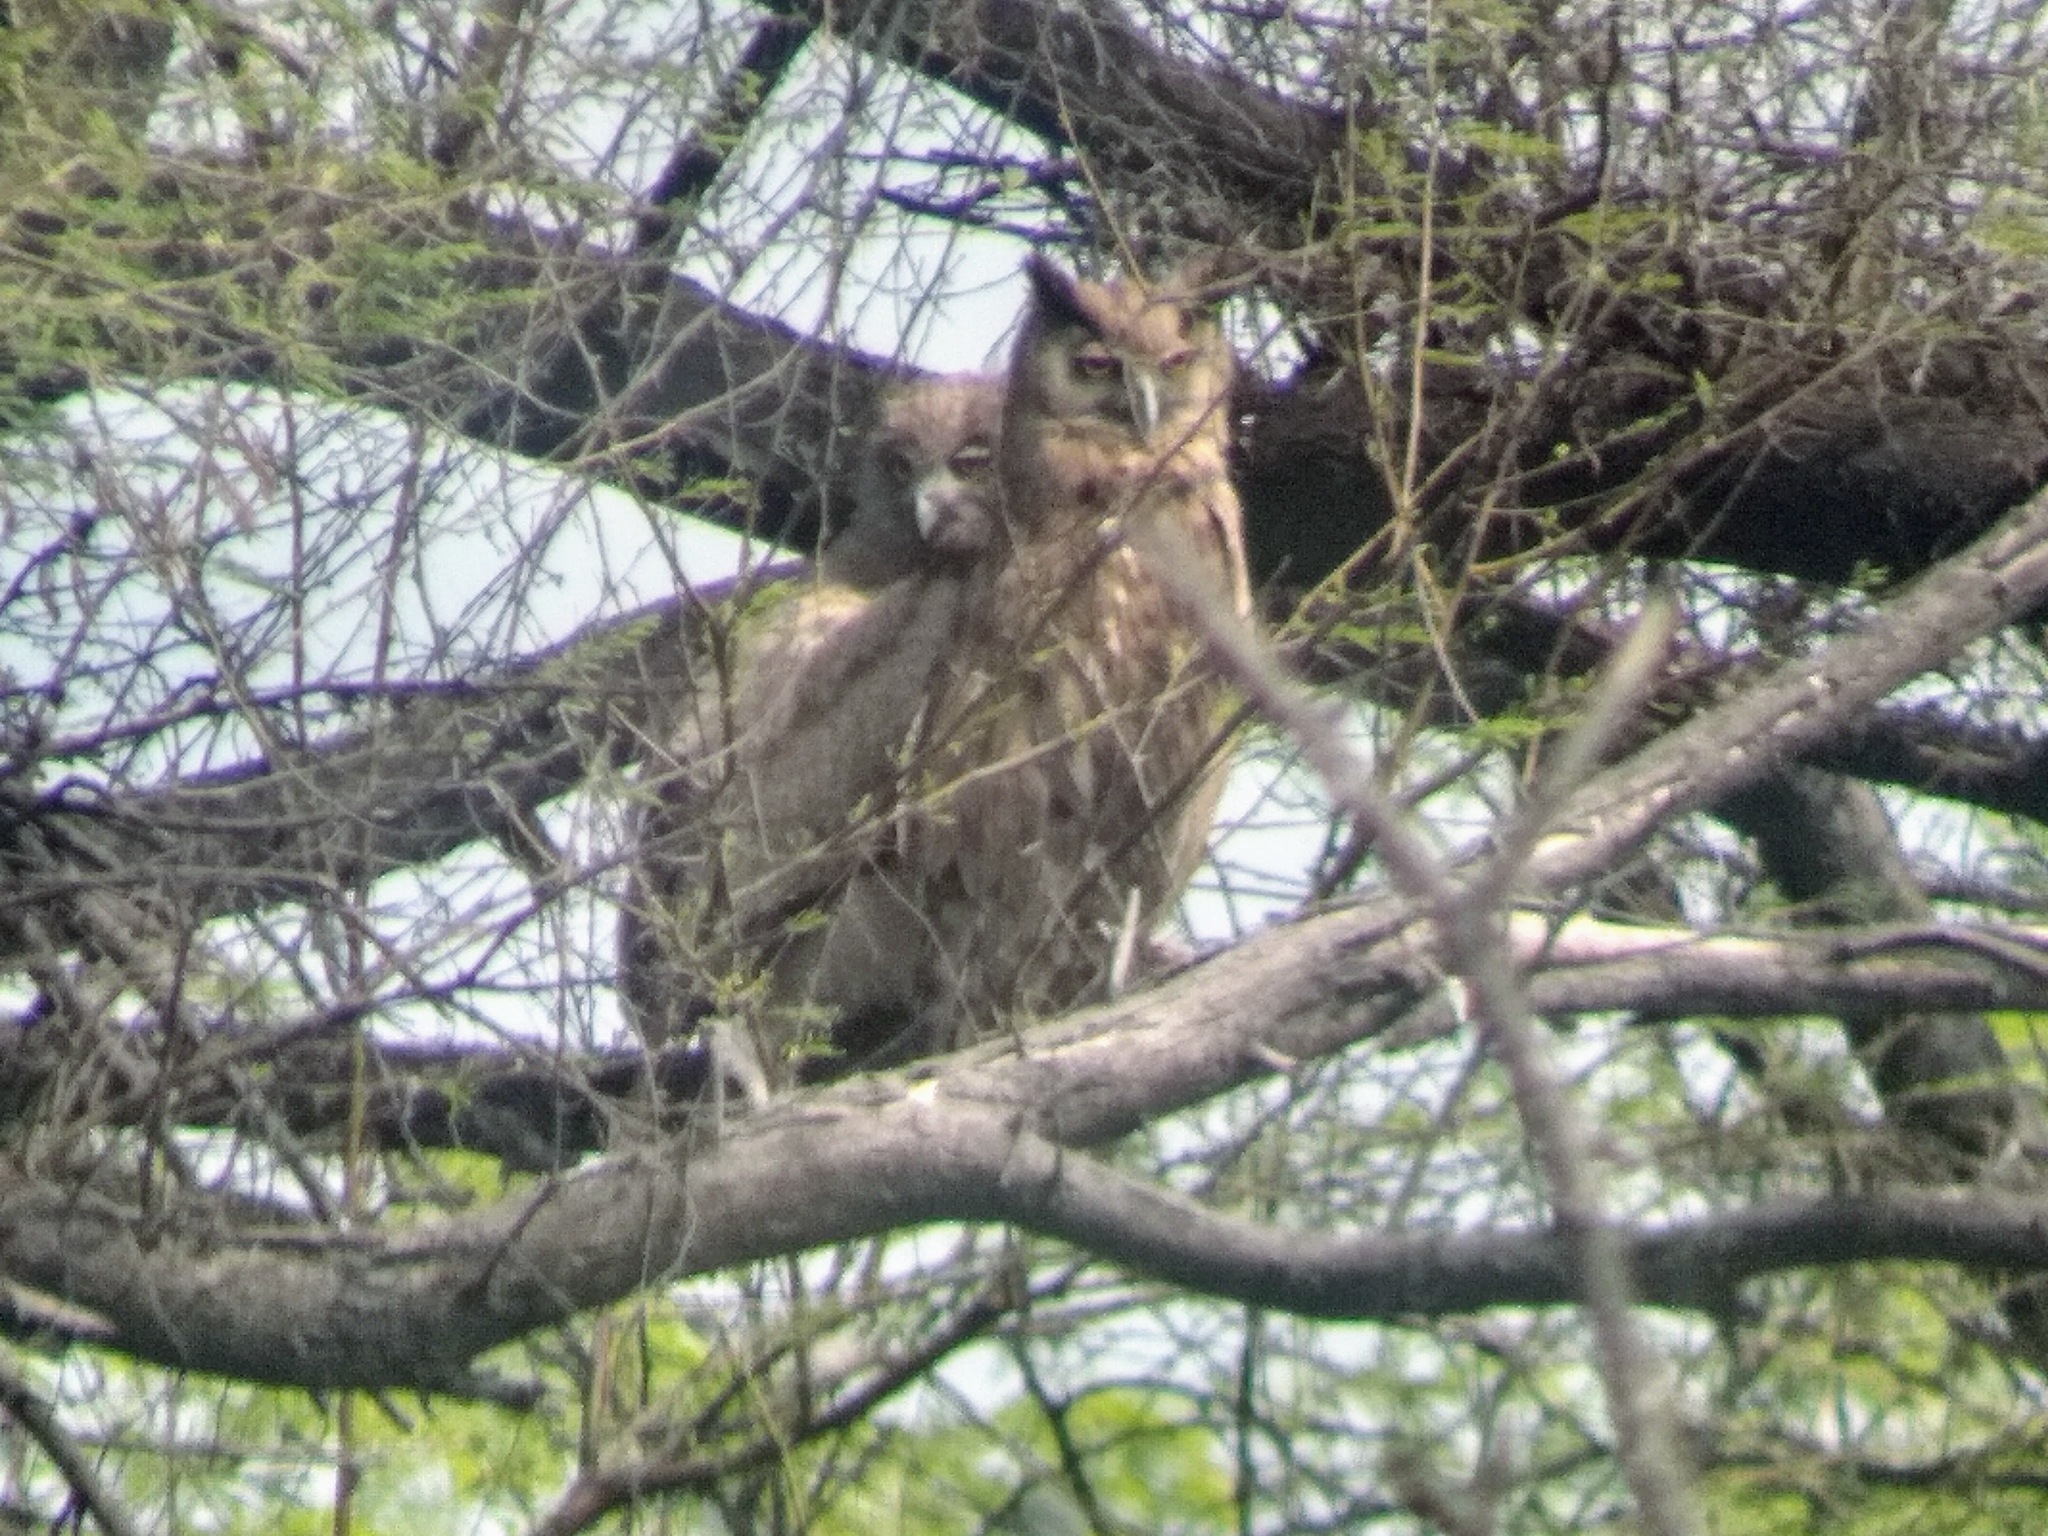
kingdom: Animalia
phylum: Chordata
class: Aves
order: Strigiformes
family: Strigidae
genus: Ketupa
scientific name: Ketupa coromanda
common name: Dusky eagle-owl
